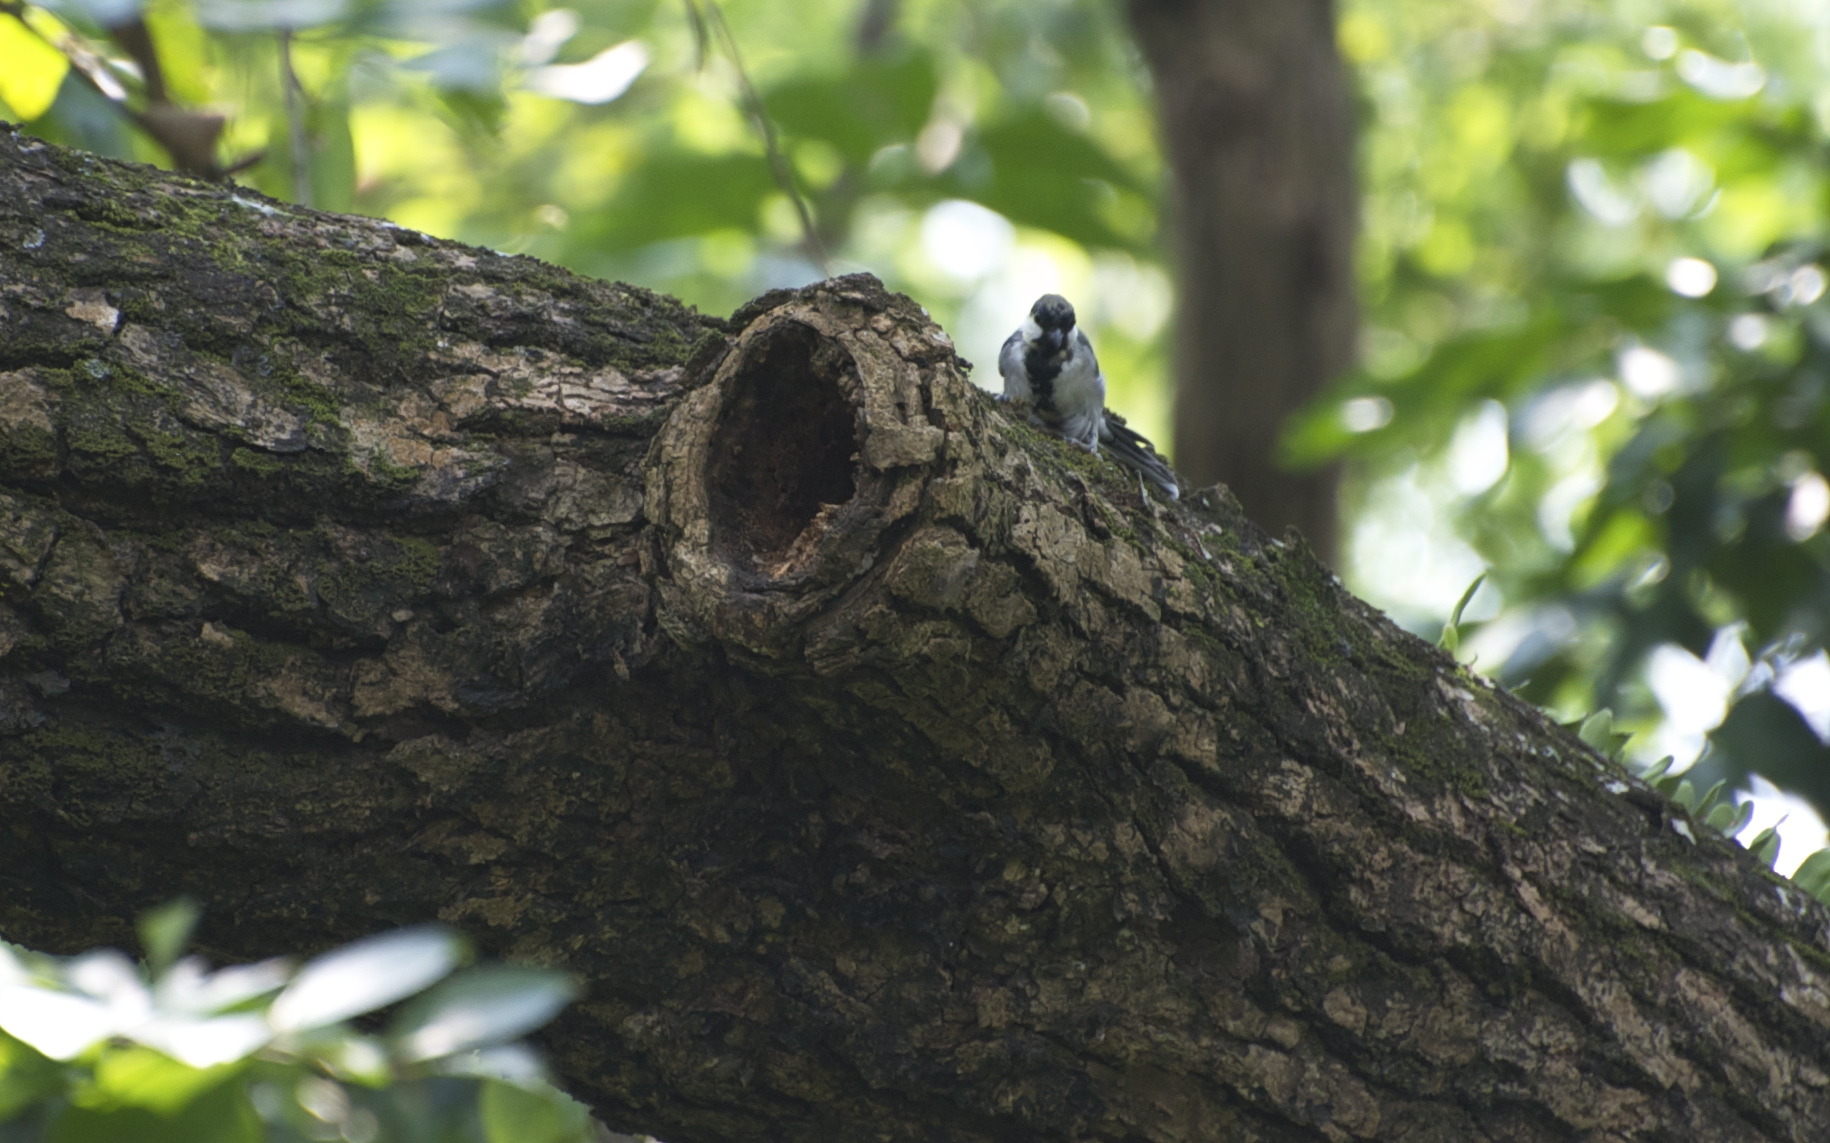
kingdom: Animalia
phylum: Chordata
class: Aves
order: Passeriformes
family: Paridae
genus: Parus
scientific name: Parus minor
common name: Japanese tit
